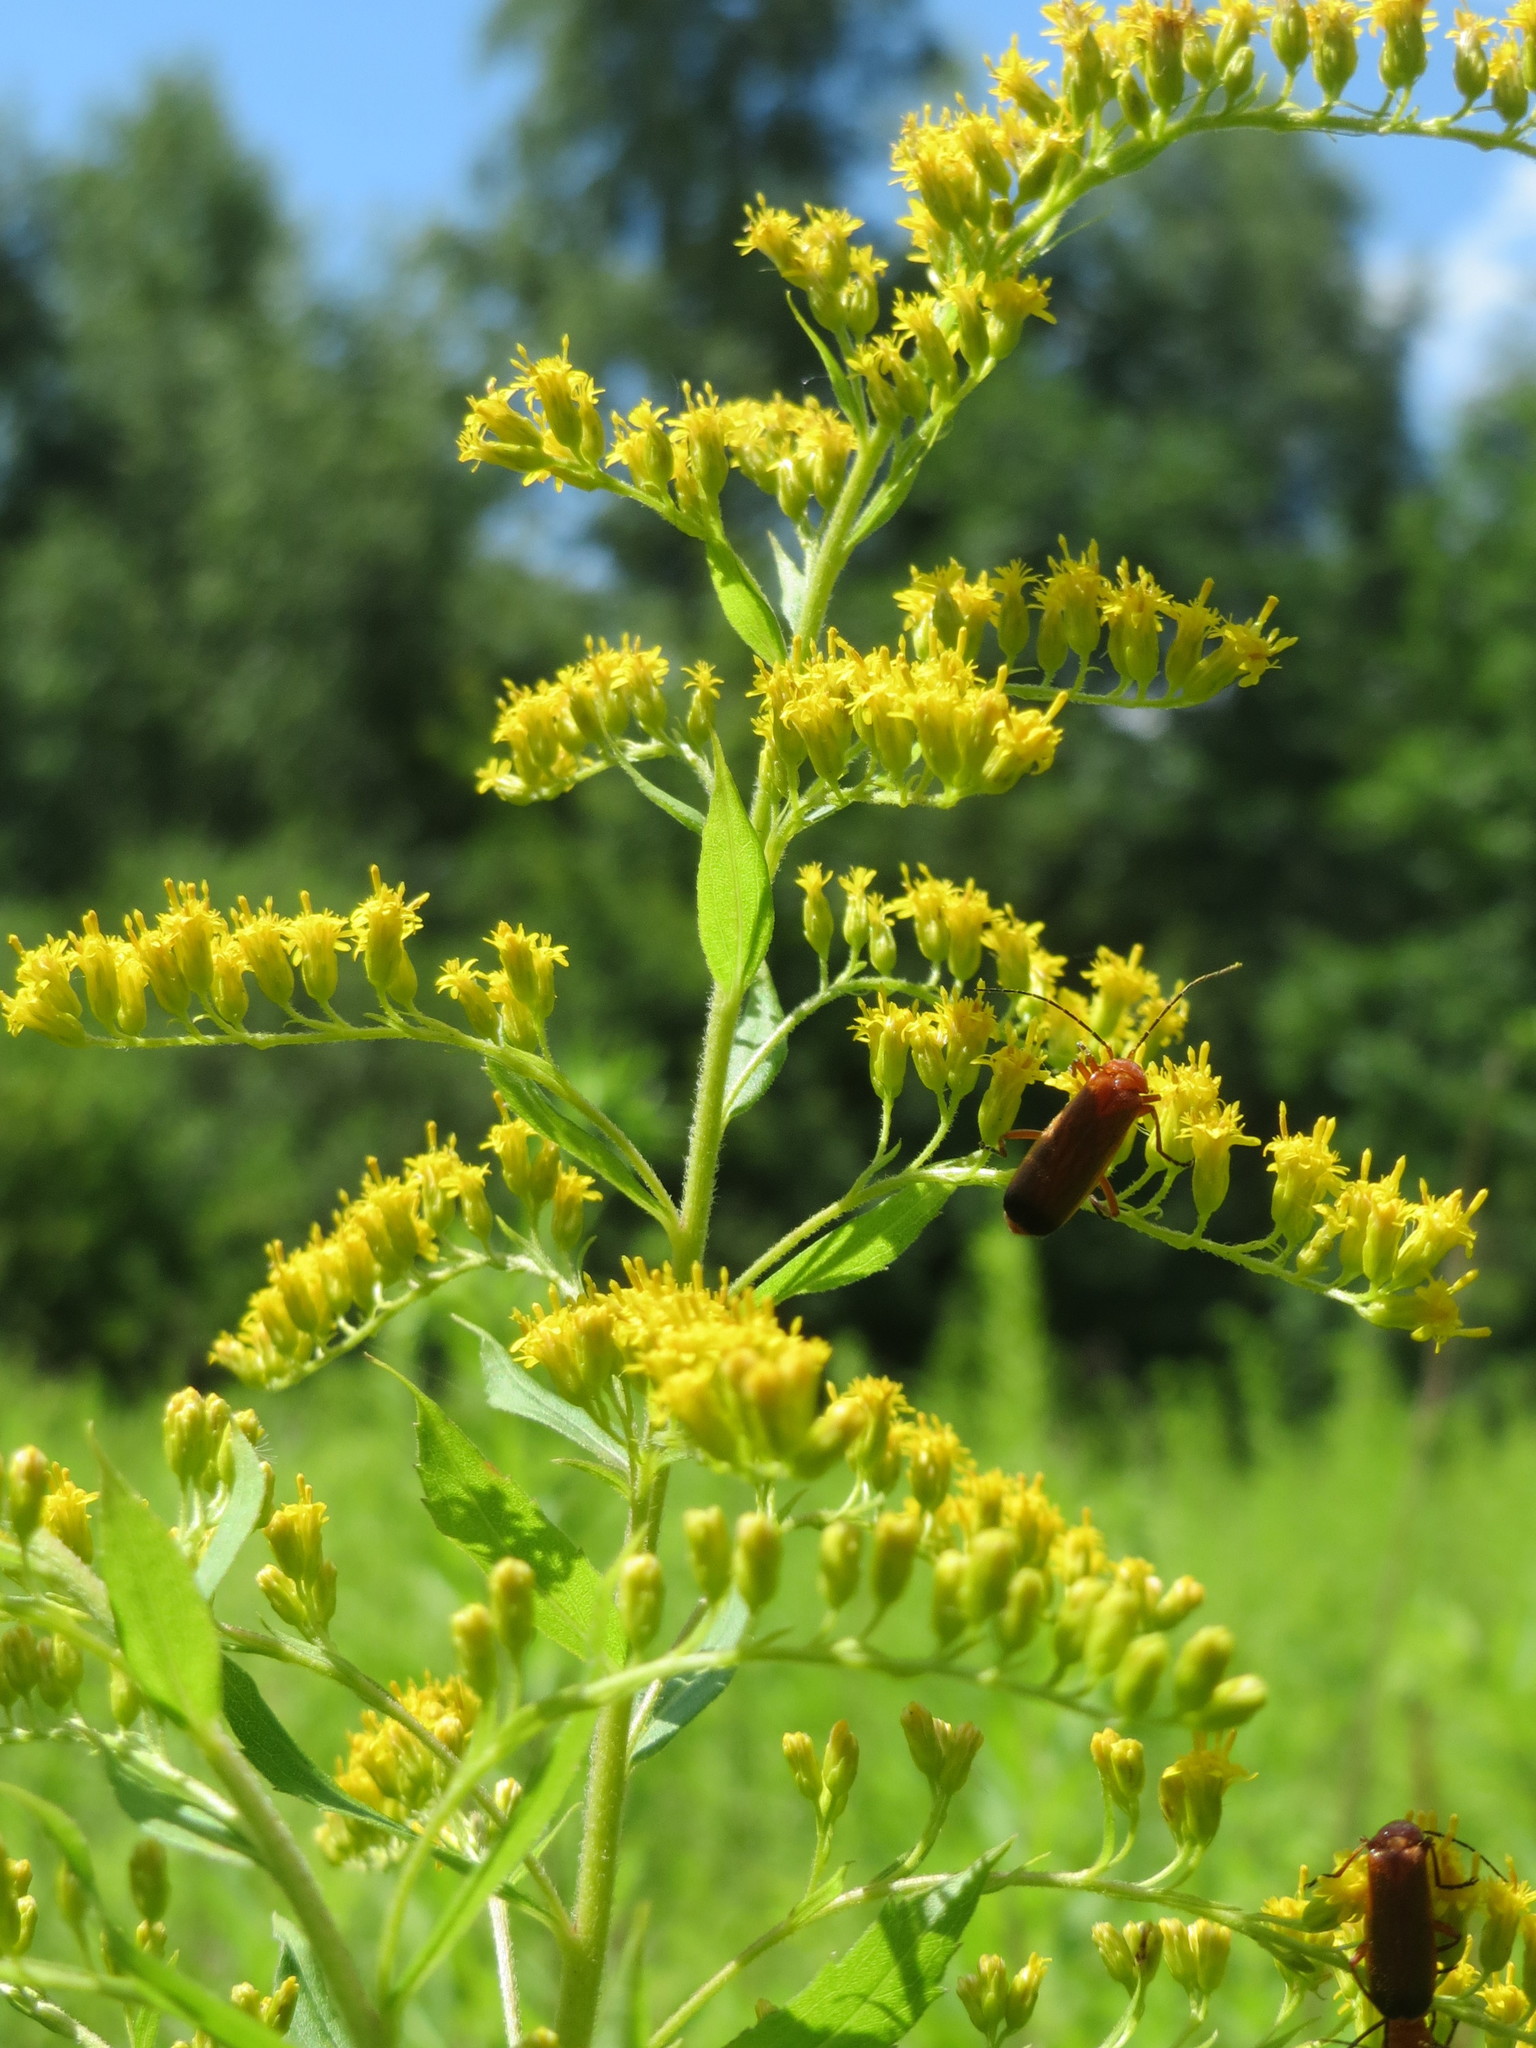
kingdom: Plantae
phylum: Tracheophyta
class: Magnoliopsida
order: Asterales
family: Asteraceae
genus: Solidago
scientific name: Solidago canadensis
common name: Canada goldenrod
